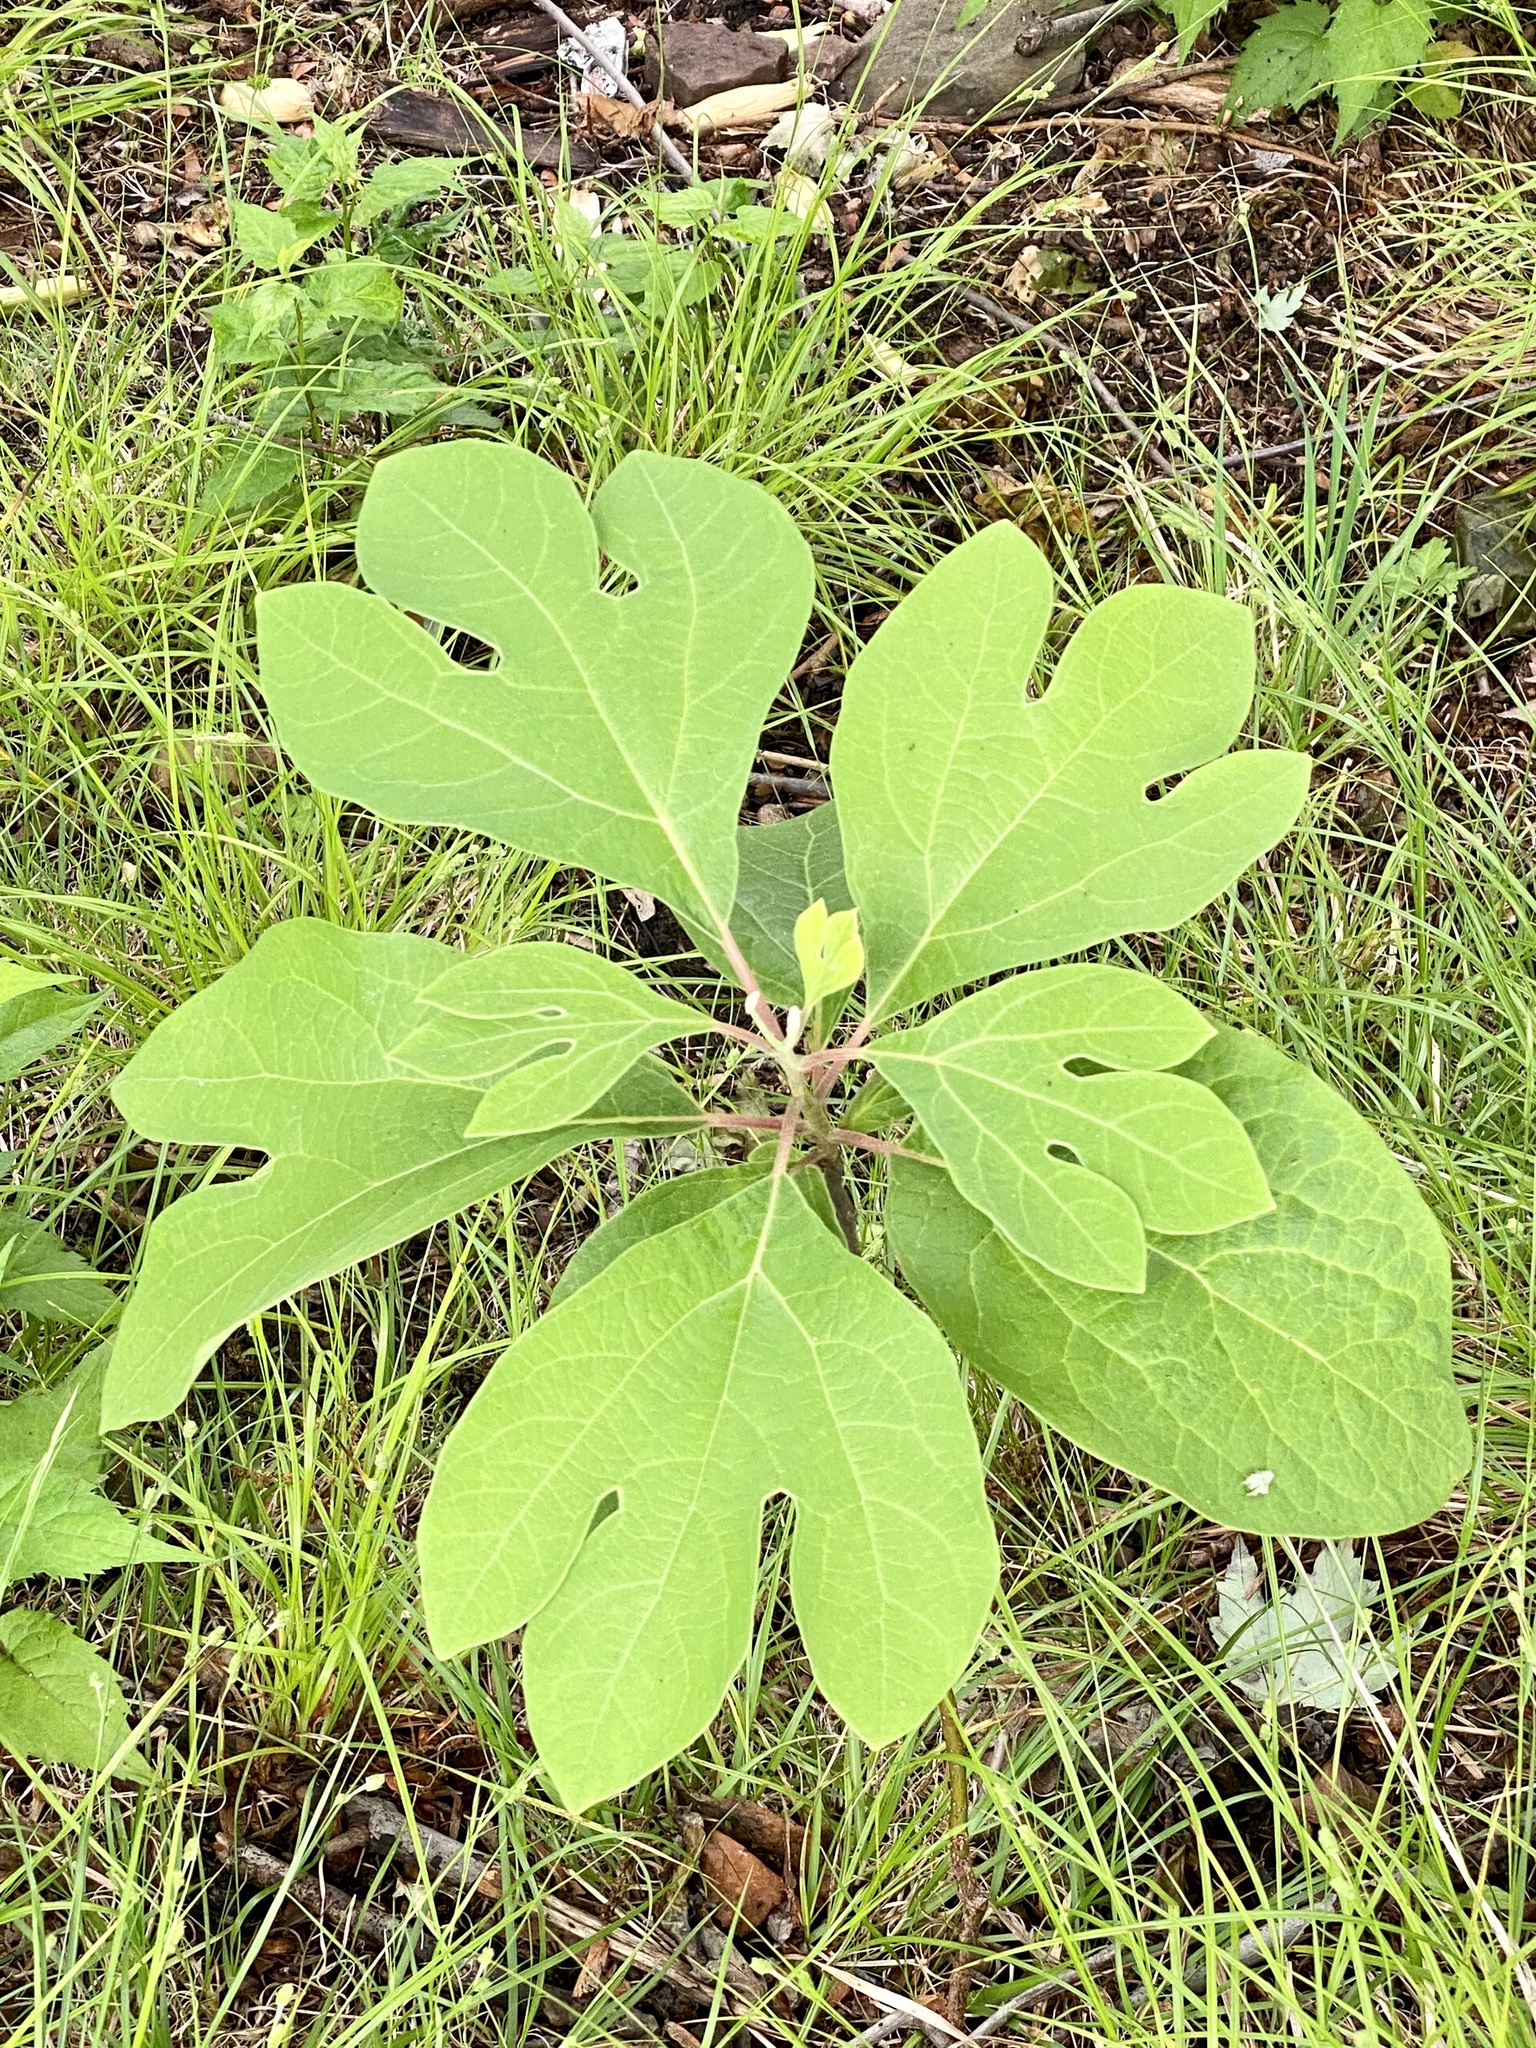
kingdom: Plantae
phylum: Tracheophyta
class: Magnoliopsida
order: Laurales
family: Lauraceae
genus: Sassafras
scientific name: Sassafras albidum
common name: Sassafras
